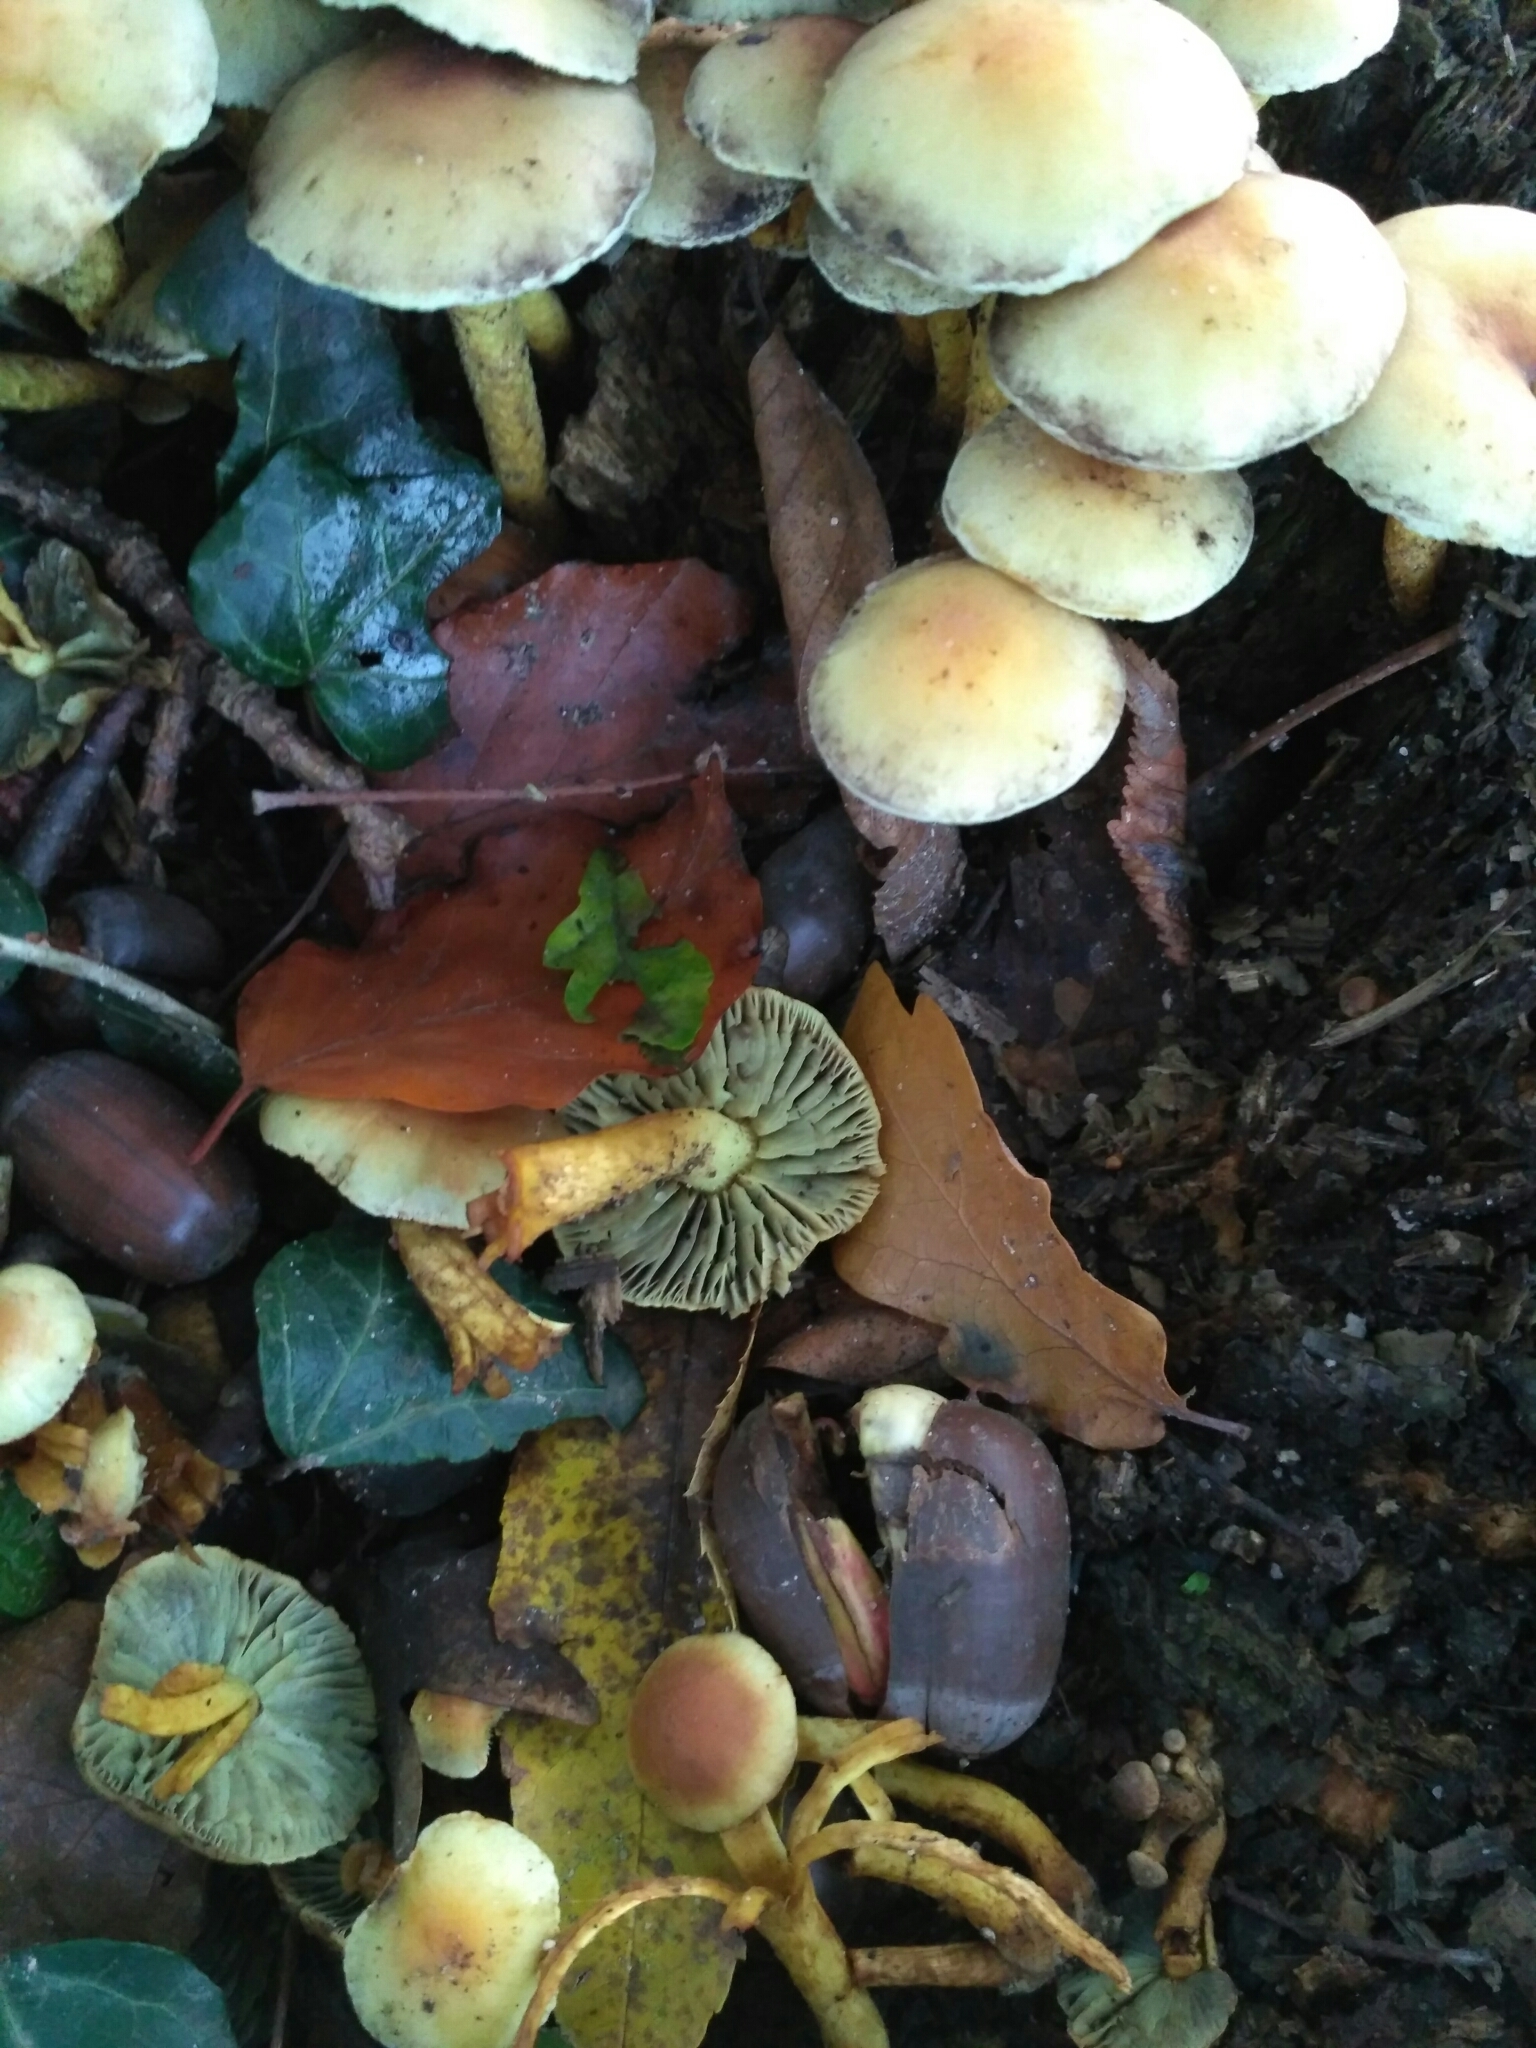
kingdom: Fungi
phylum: Basidiomycota
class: Agaricomycetes
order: Agaricales
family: Strophariaceae
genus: Hypholoma
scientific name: Hypholoma fasciculare
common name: Sulphur tuft
